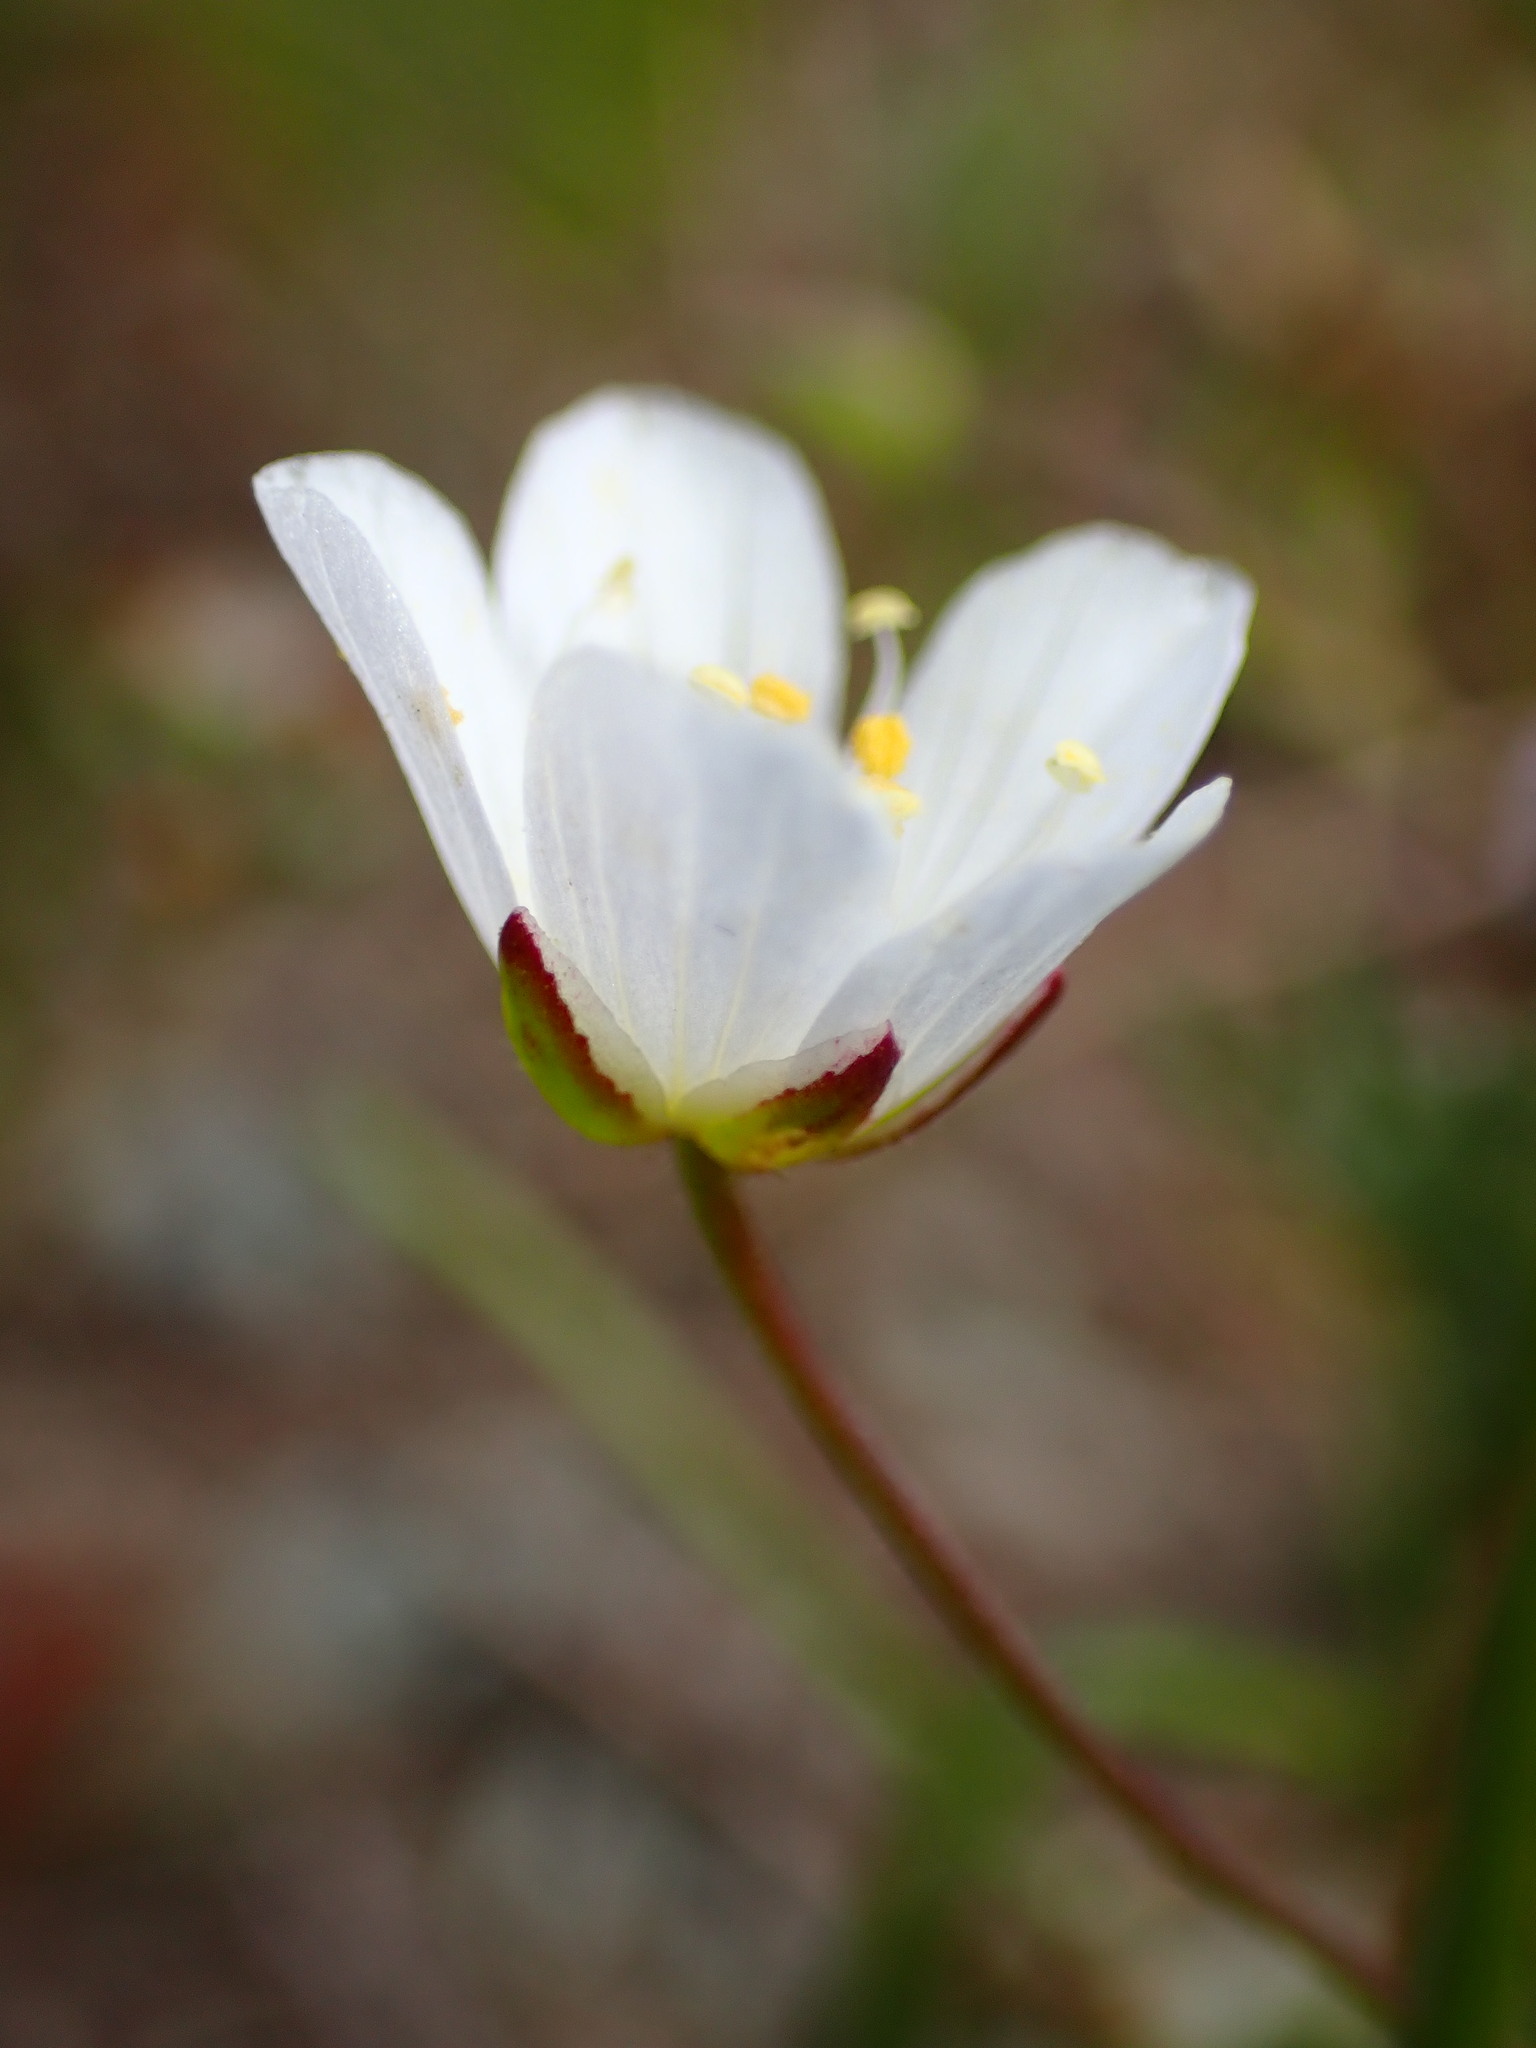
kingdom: Plantae
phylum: Tracheophyta
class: Magnoliopsida
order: Caryophyllales
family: Caryophyllaceae
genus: Sabulina
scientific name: Sabulina douglasii
